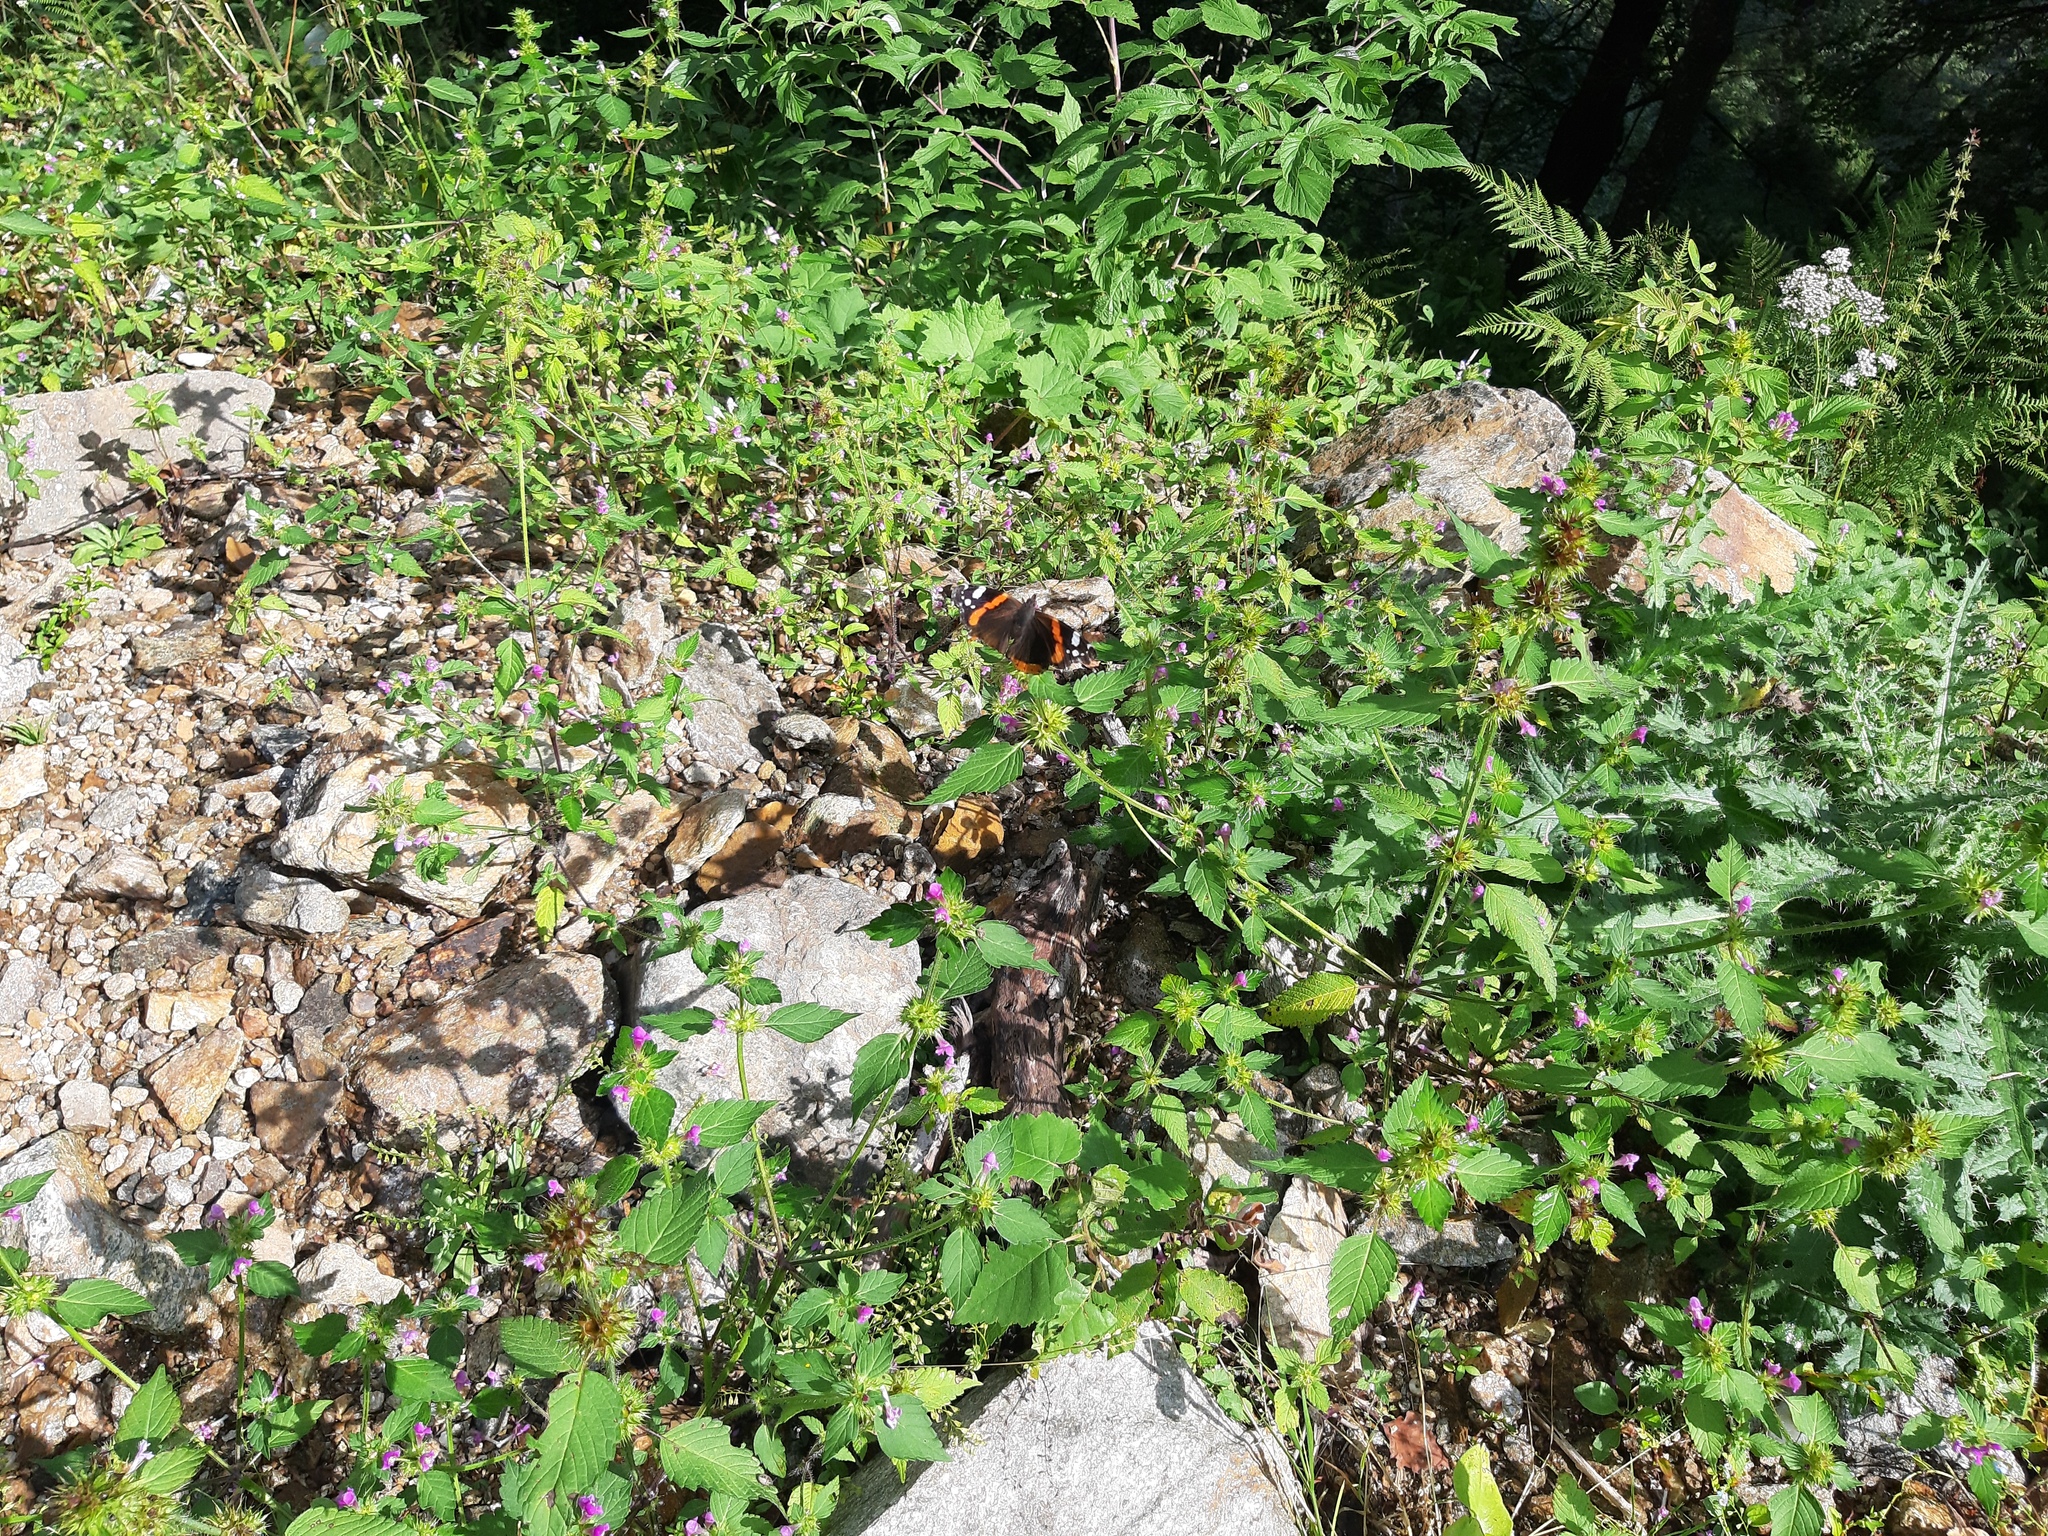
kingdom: Animalia
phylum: Arthropoda
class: Insecta
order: Lepidoptera
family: Nymphalidae
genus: Vanessa
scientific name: Vanessa atalanta
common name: Red admiral
